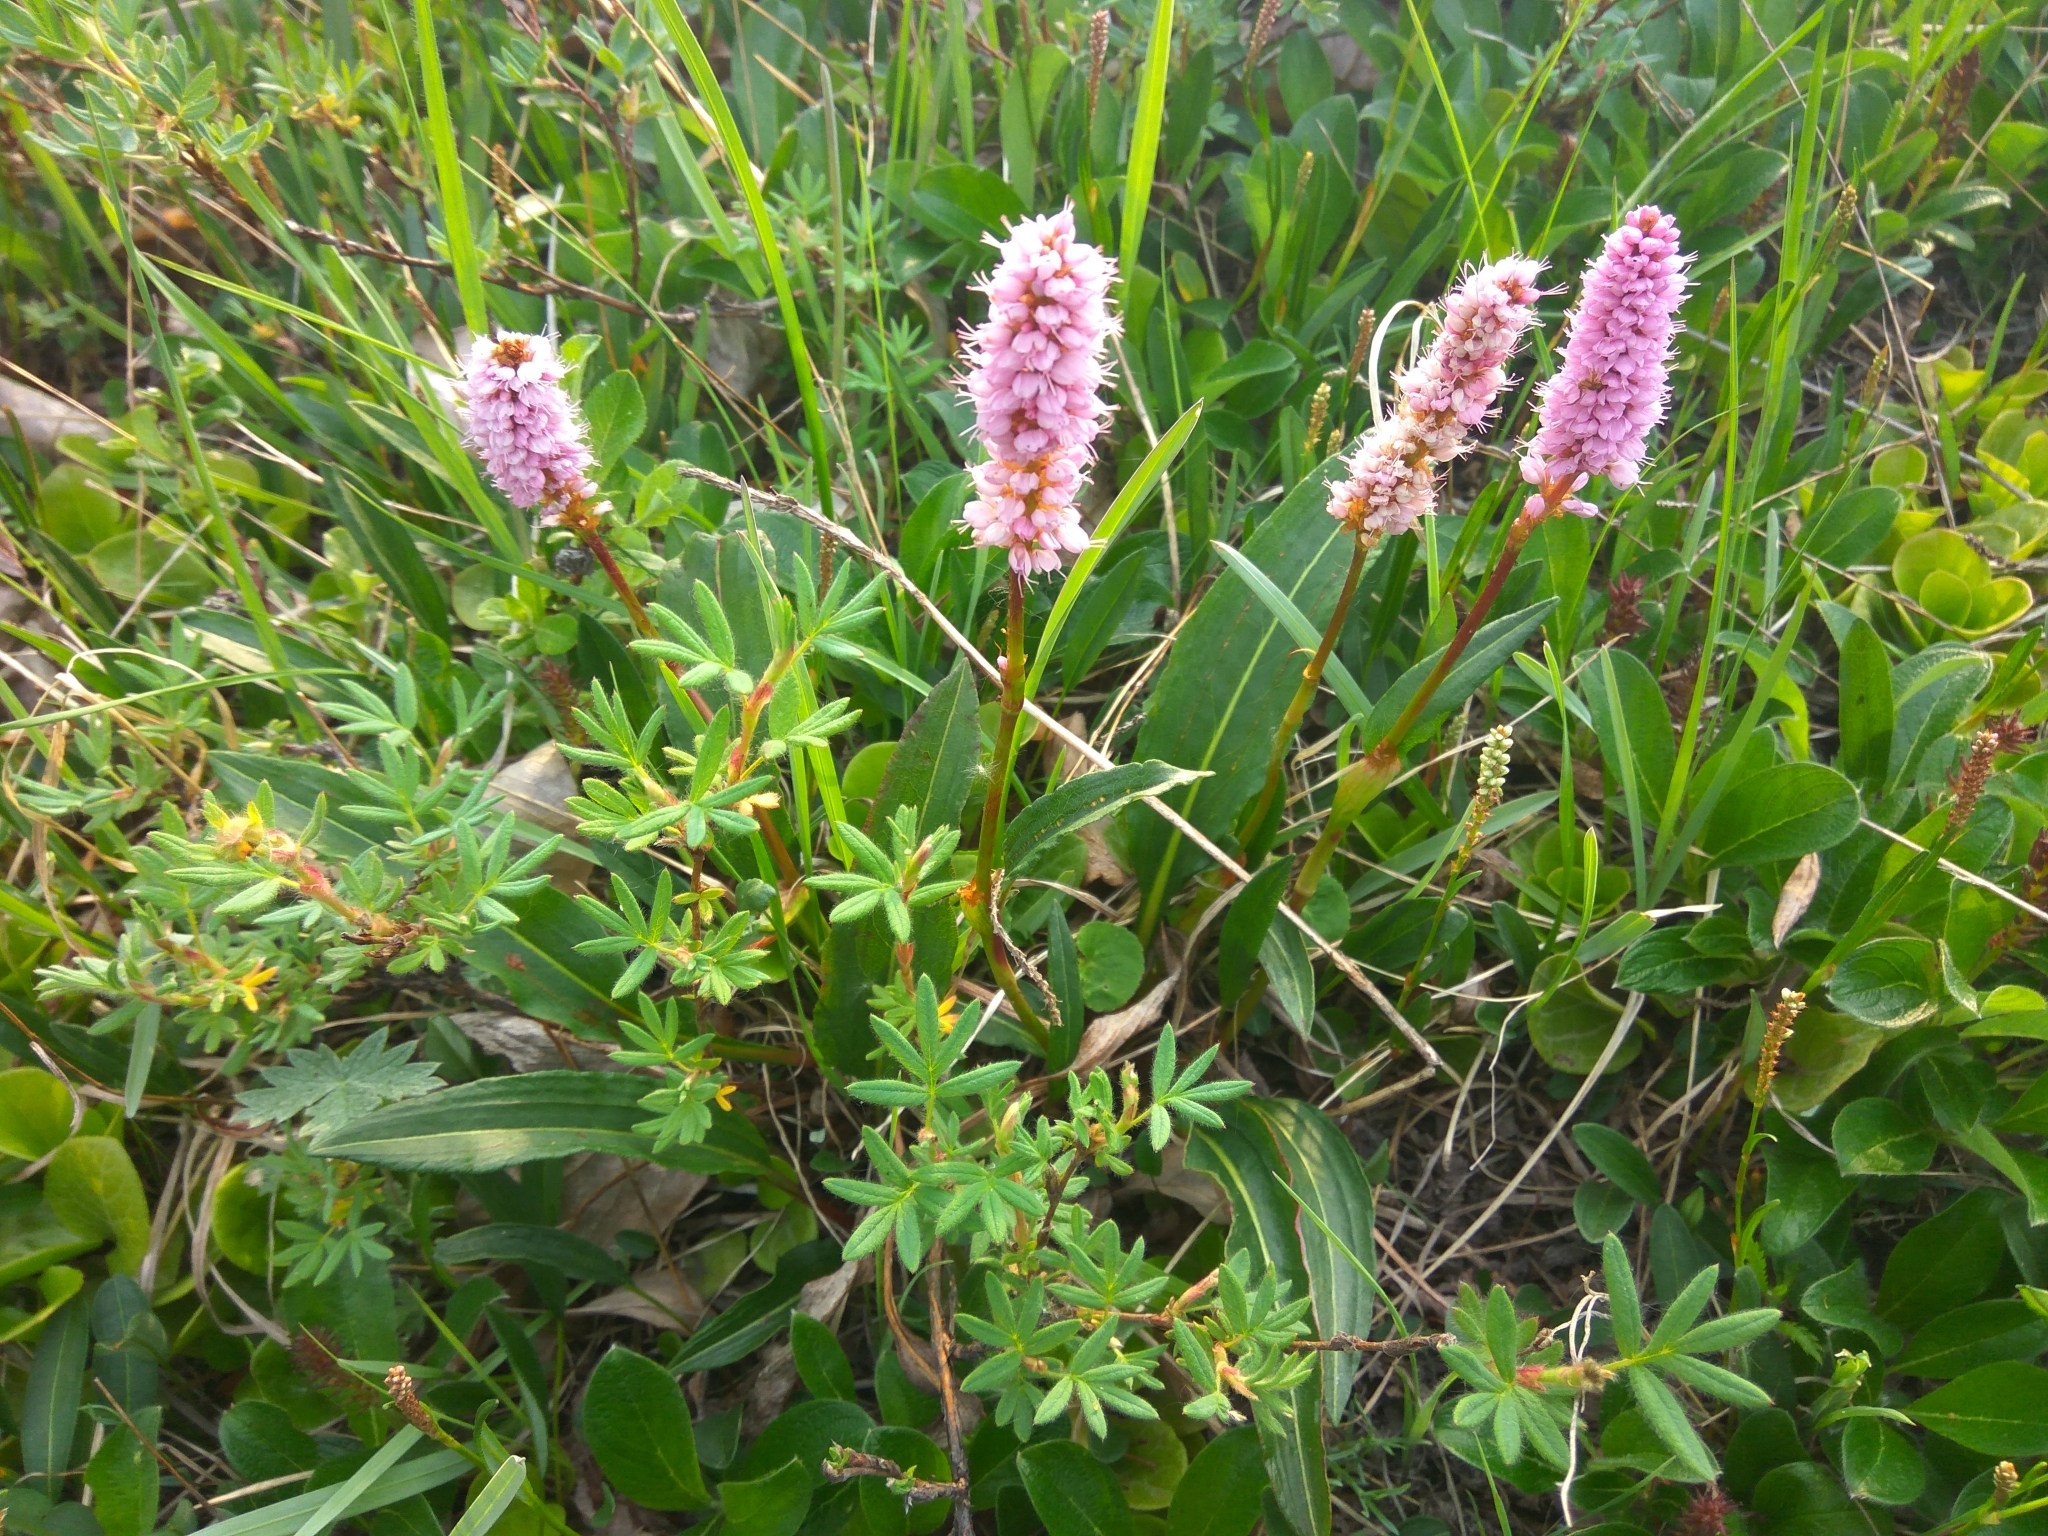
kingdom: Plantae
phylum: Tracheophyta
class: Magnoliopsida
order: Caryophyllales
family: Polygonaceae
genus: Bistorta
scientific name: Bistorta plumosa
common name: Meadow bistort
